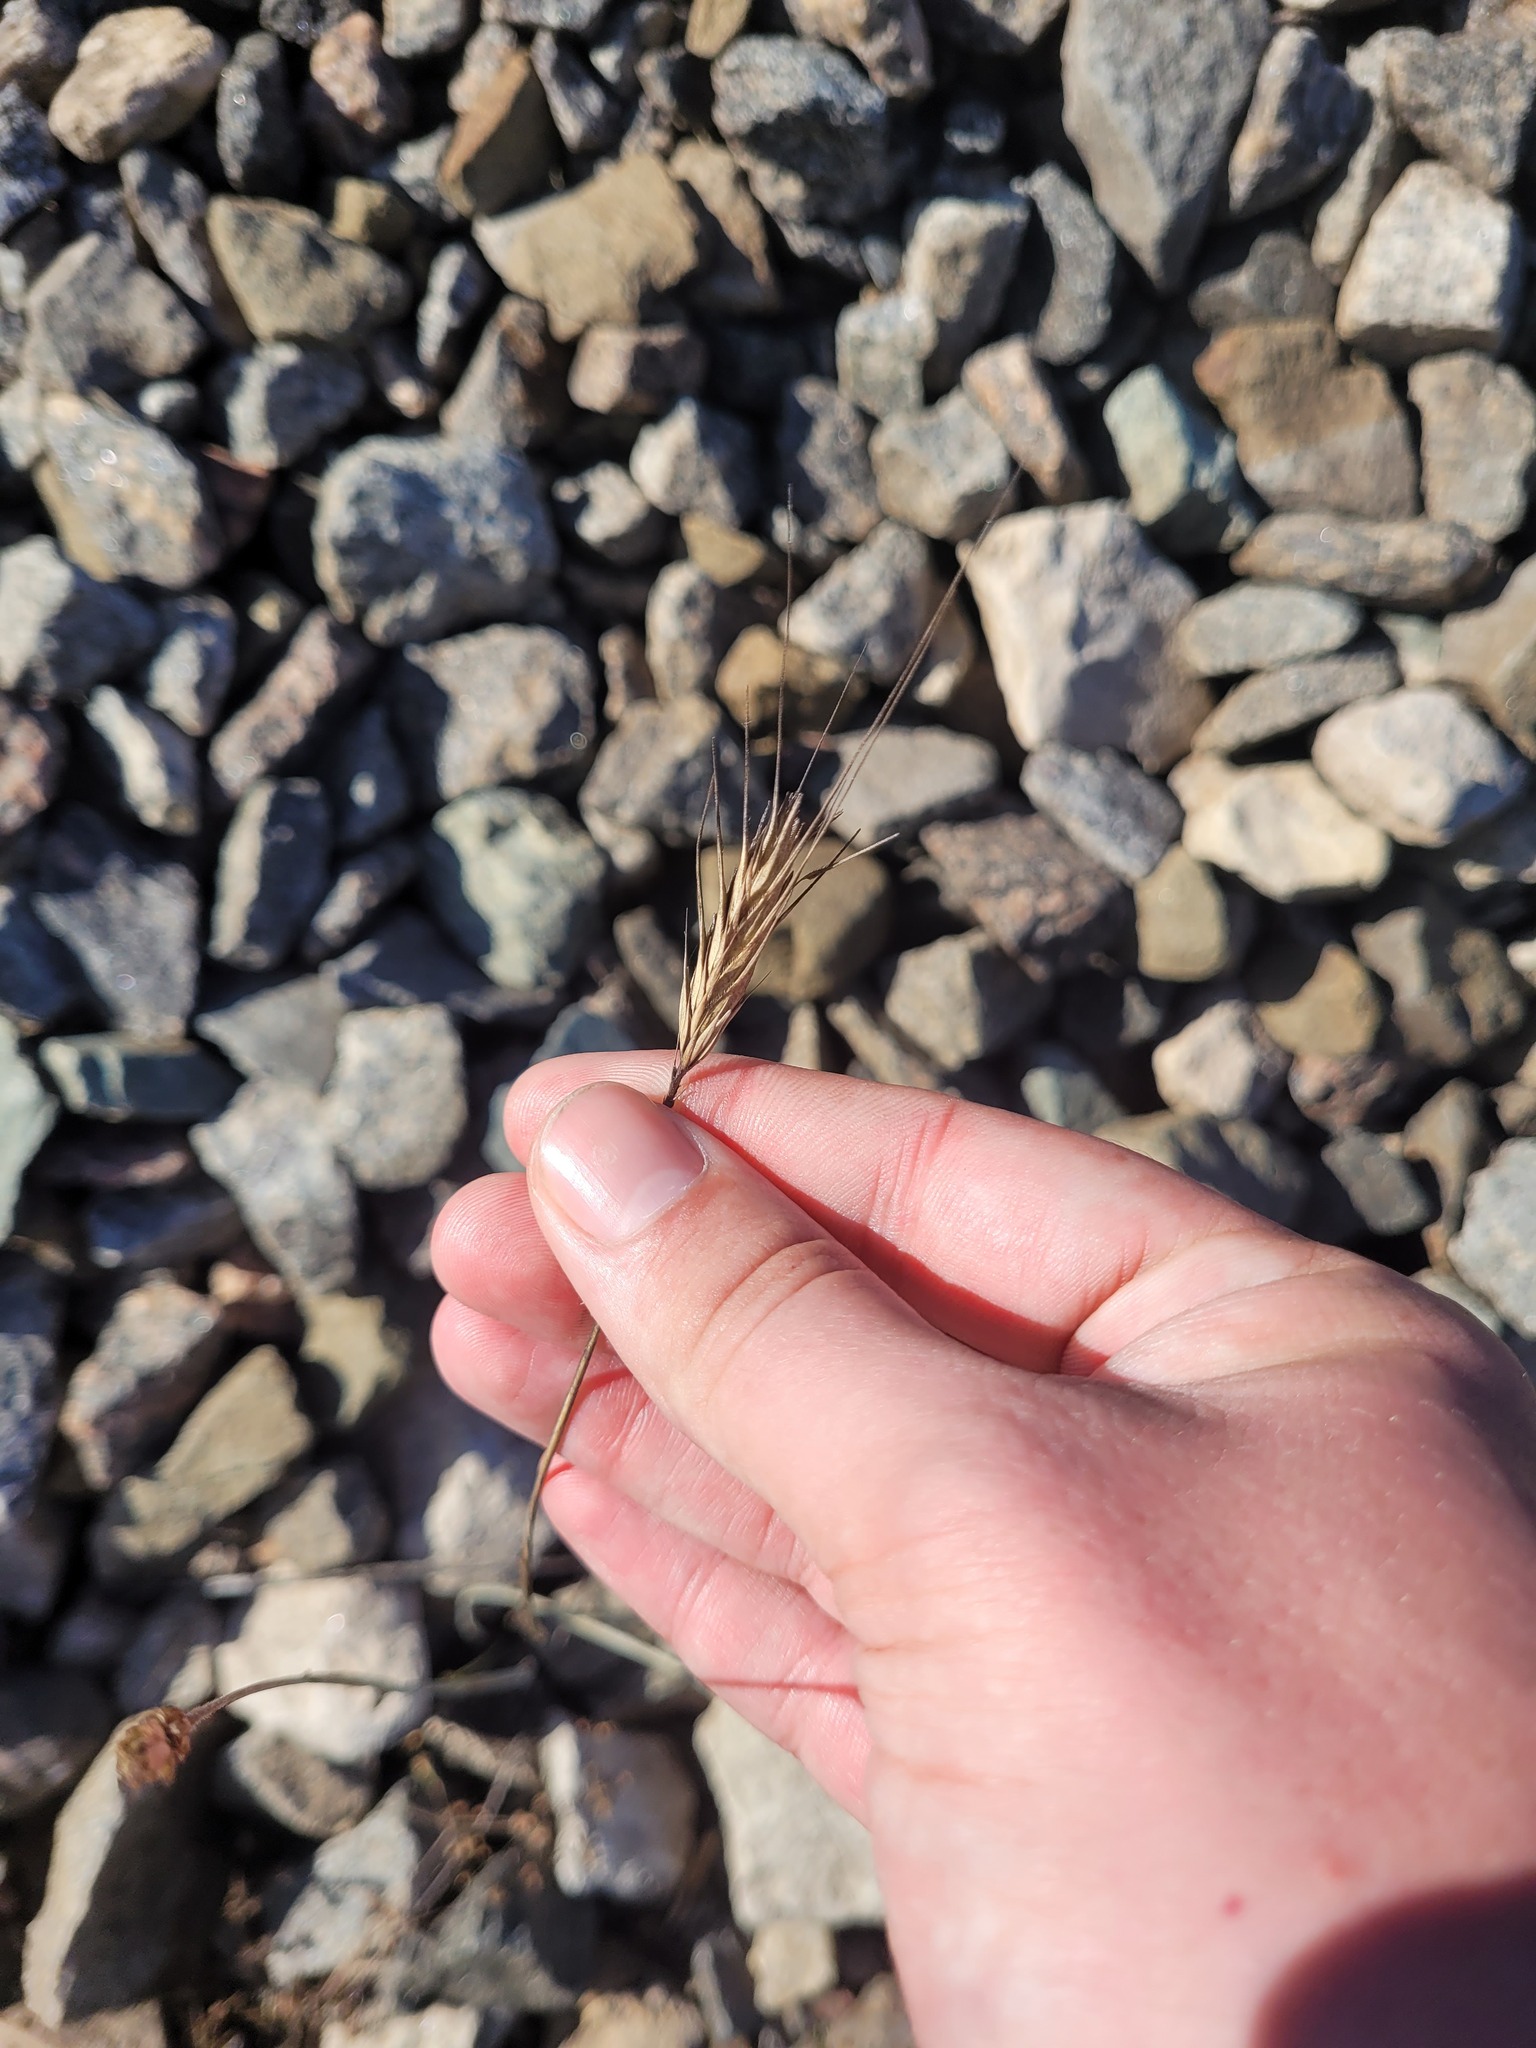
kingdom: Plantae
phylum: Tracheophyta
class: Liliopsida
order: Poales
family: Poaceae
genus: Secale
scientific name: Secale cereale
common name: Rye
